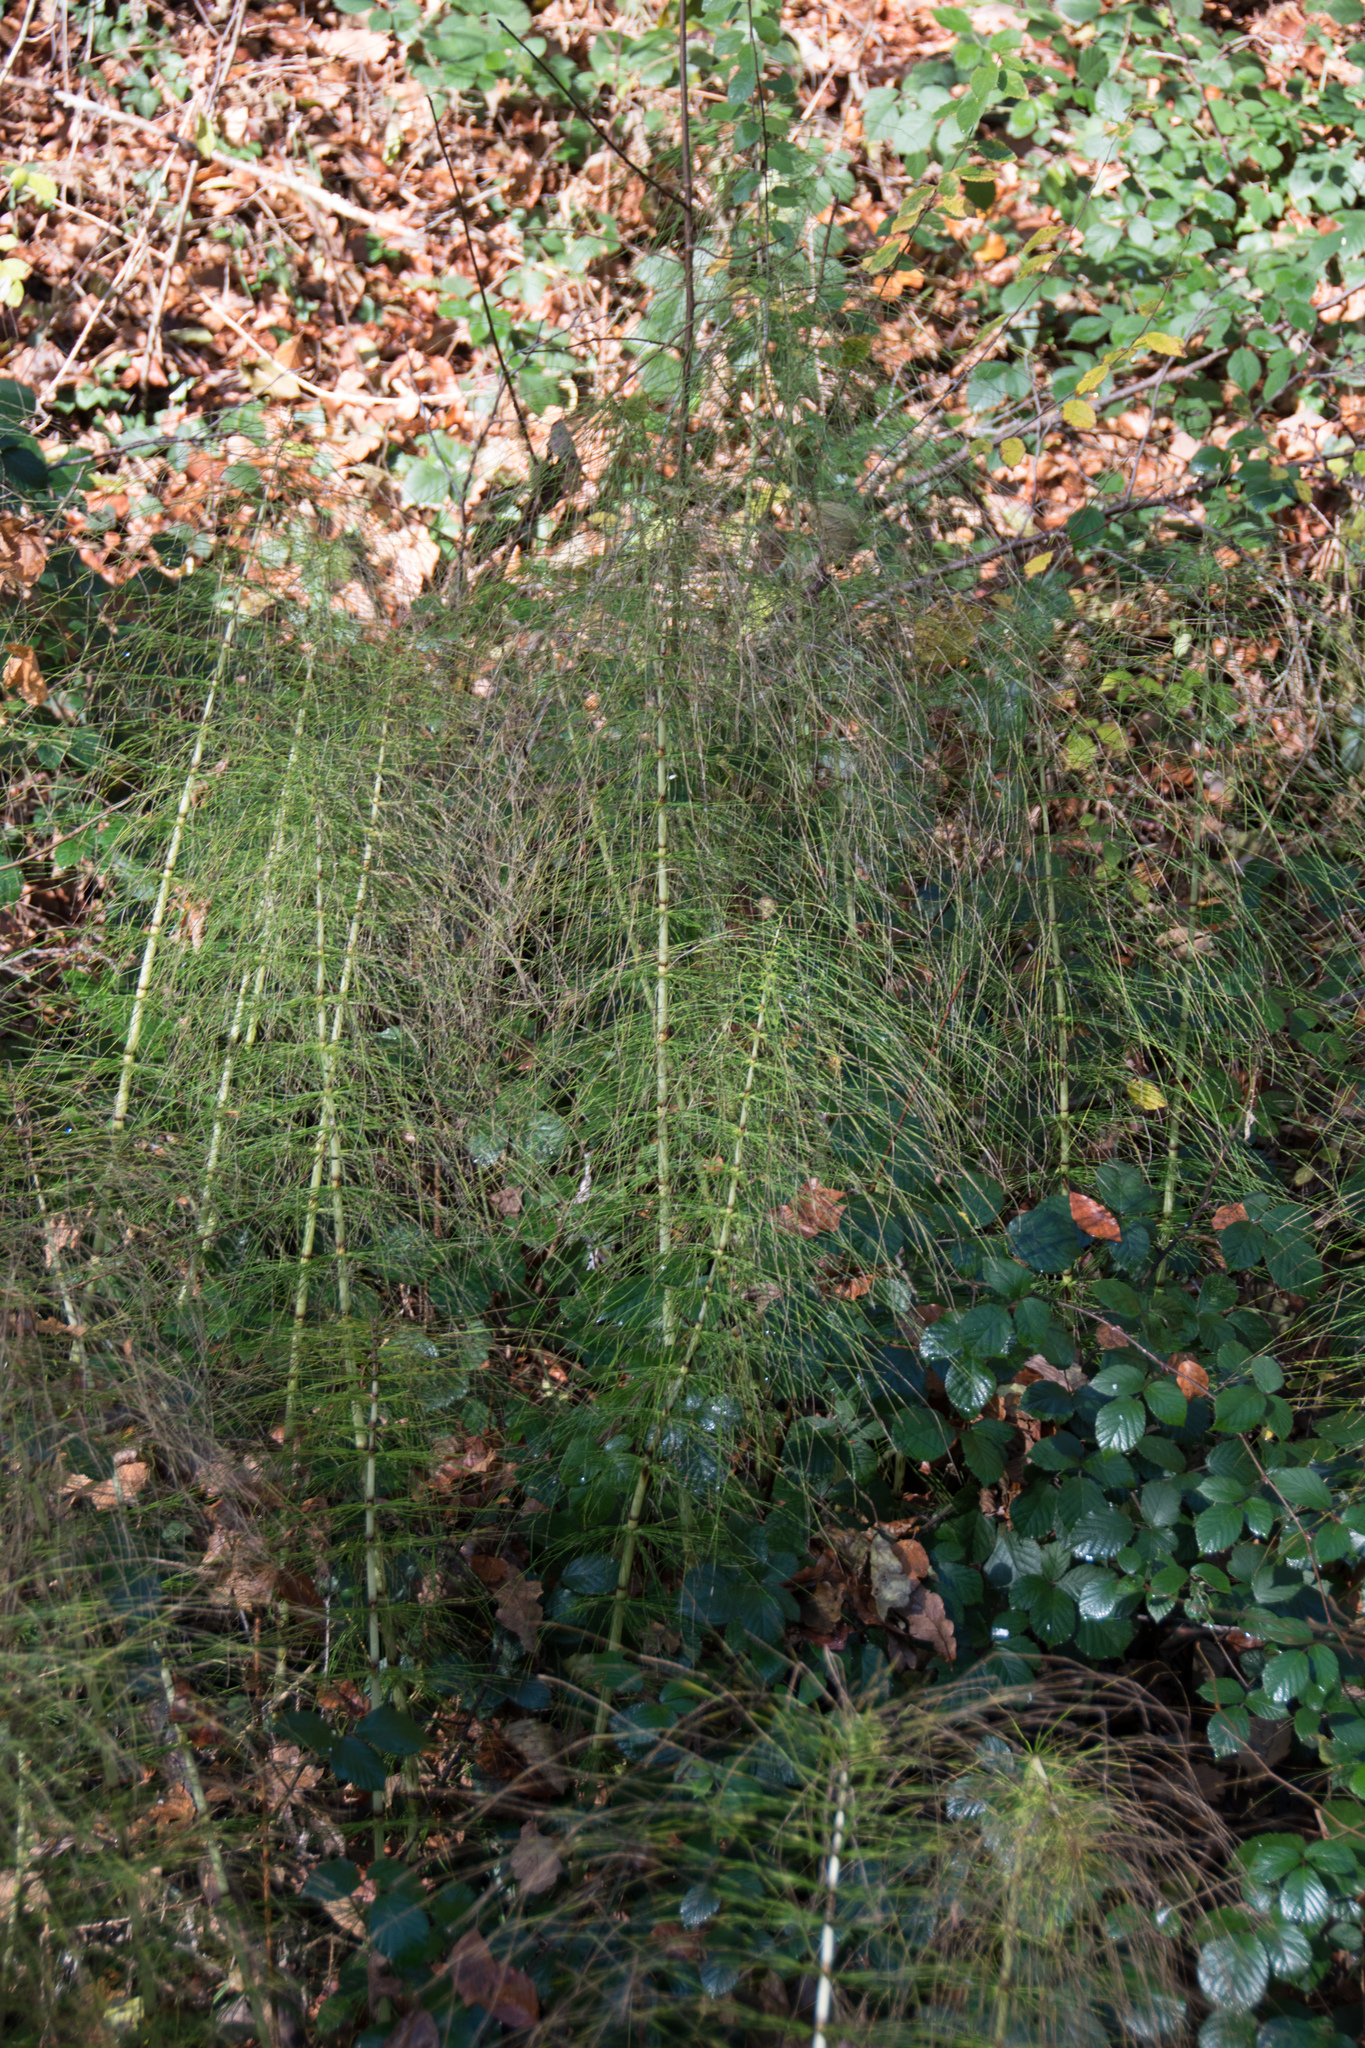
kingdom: Plantae
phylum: Tracheophyta
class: Polypodiopsida
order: Equisetales
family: Equisetaceae
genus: Equisetum
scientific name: Equisetum telmateia
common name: Great horsetail
